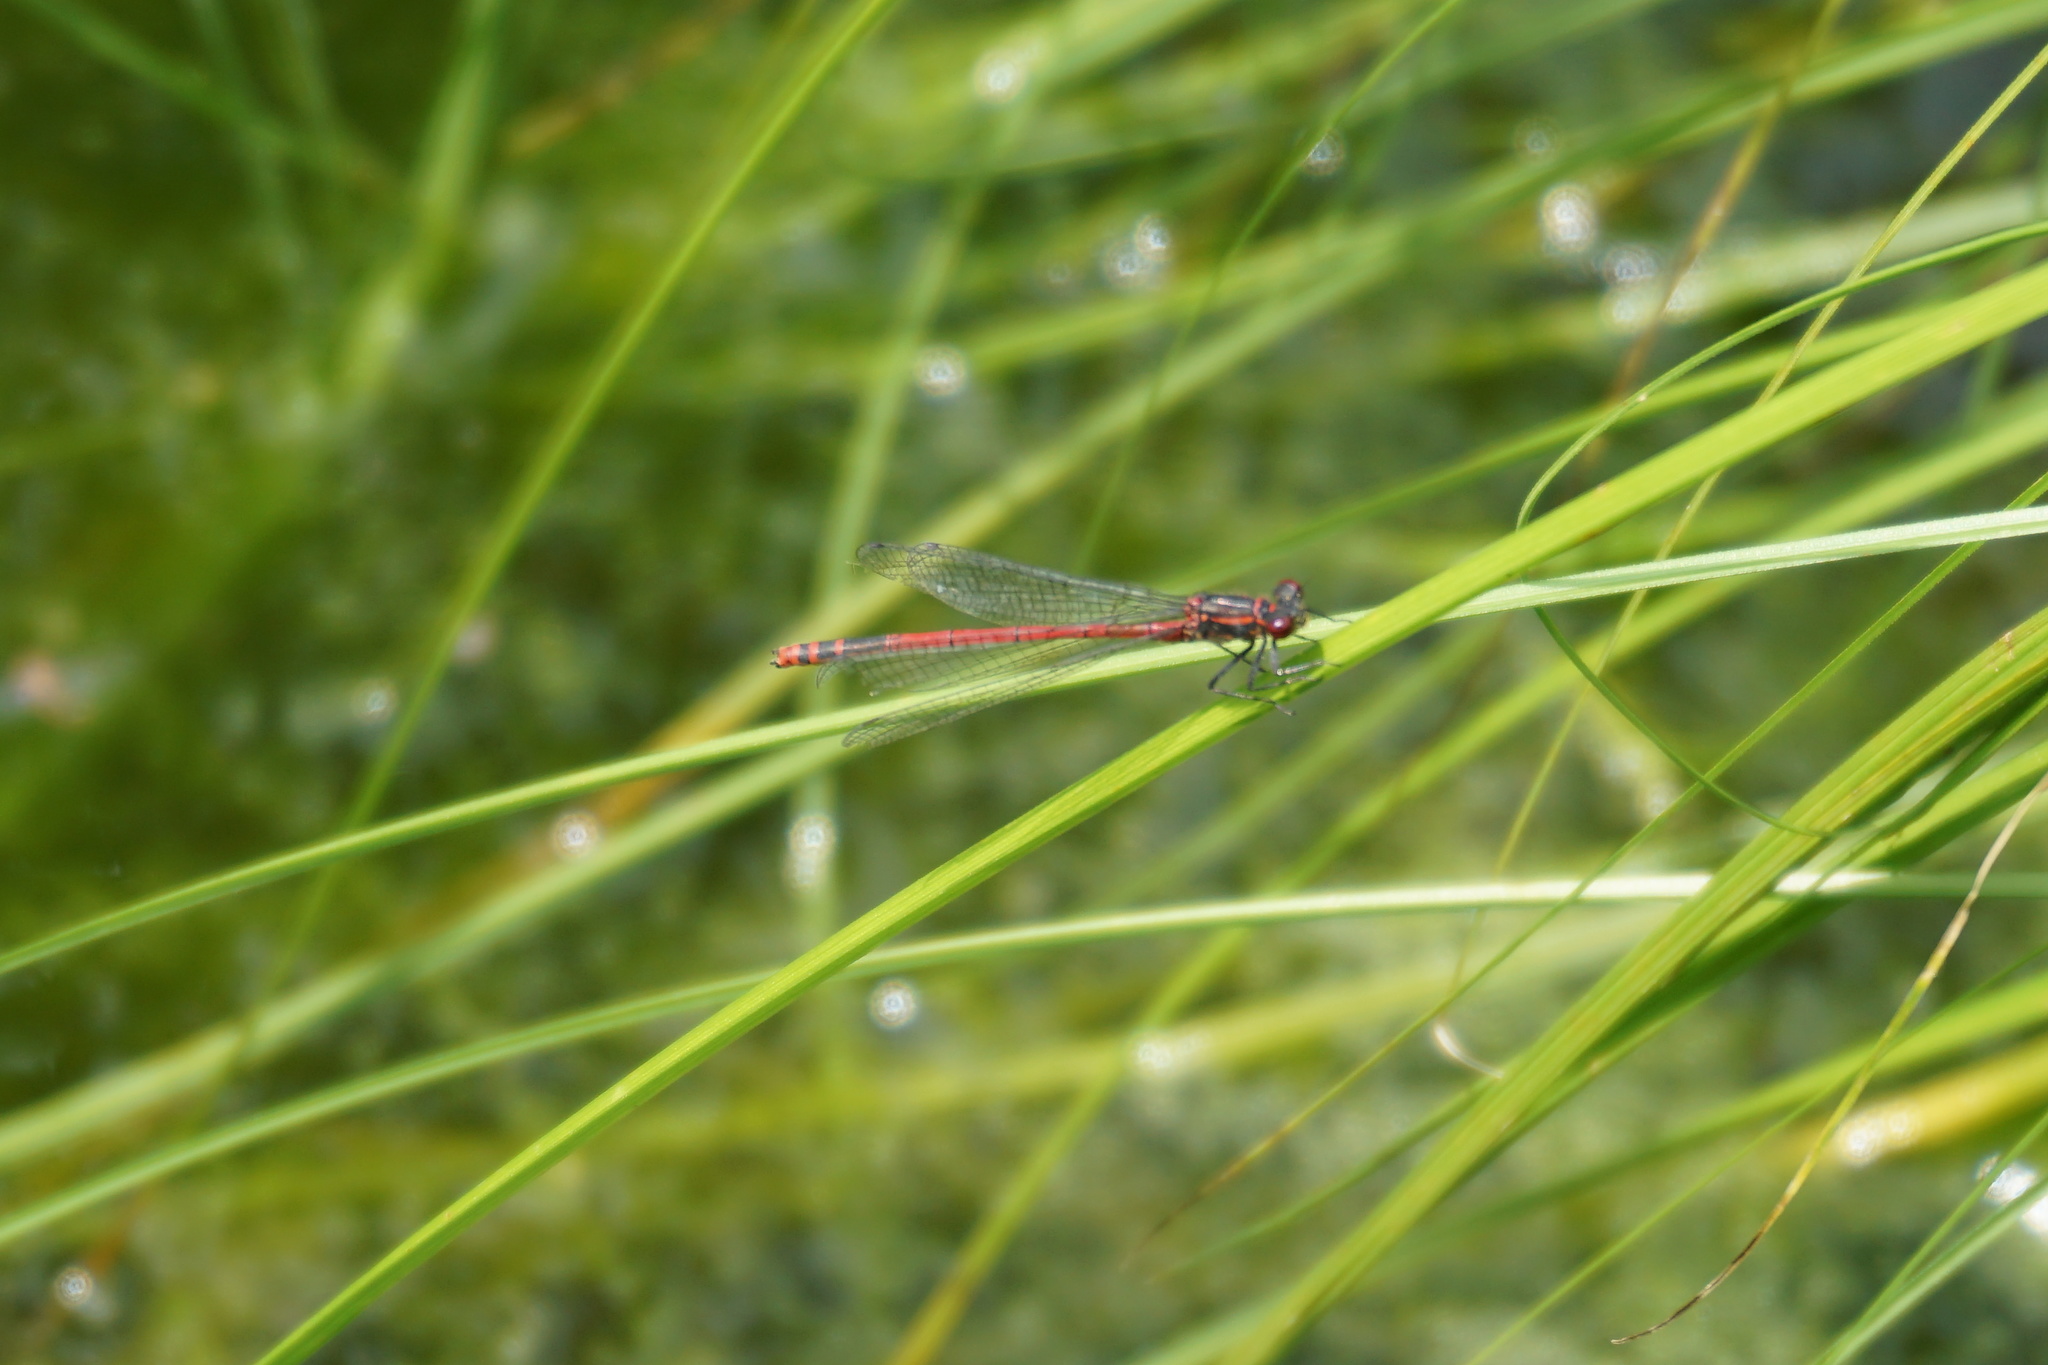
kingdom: Animalia
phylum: Arthropoda
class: Insecta
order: Odonata
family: Coenagrionidae
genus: Pyrrhosoma
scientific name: Pyrrhosoma nymphula
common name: Large red damsel
